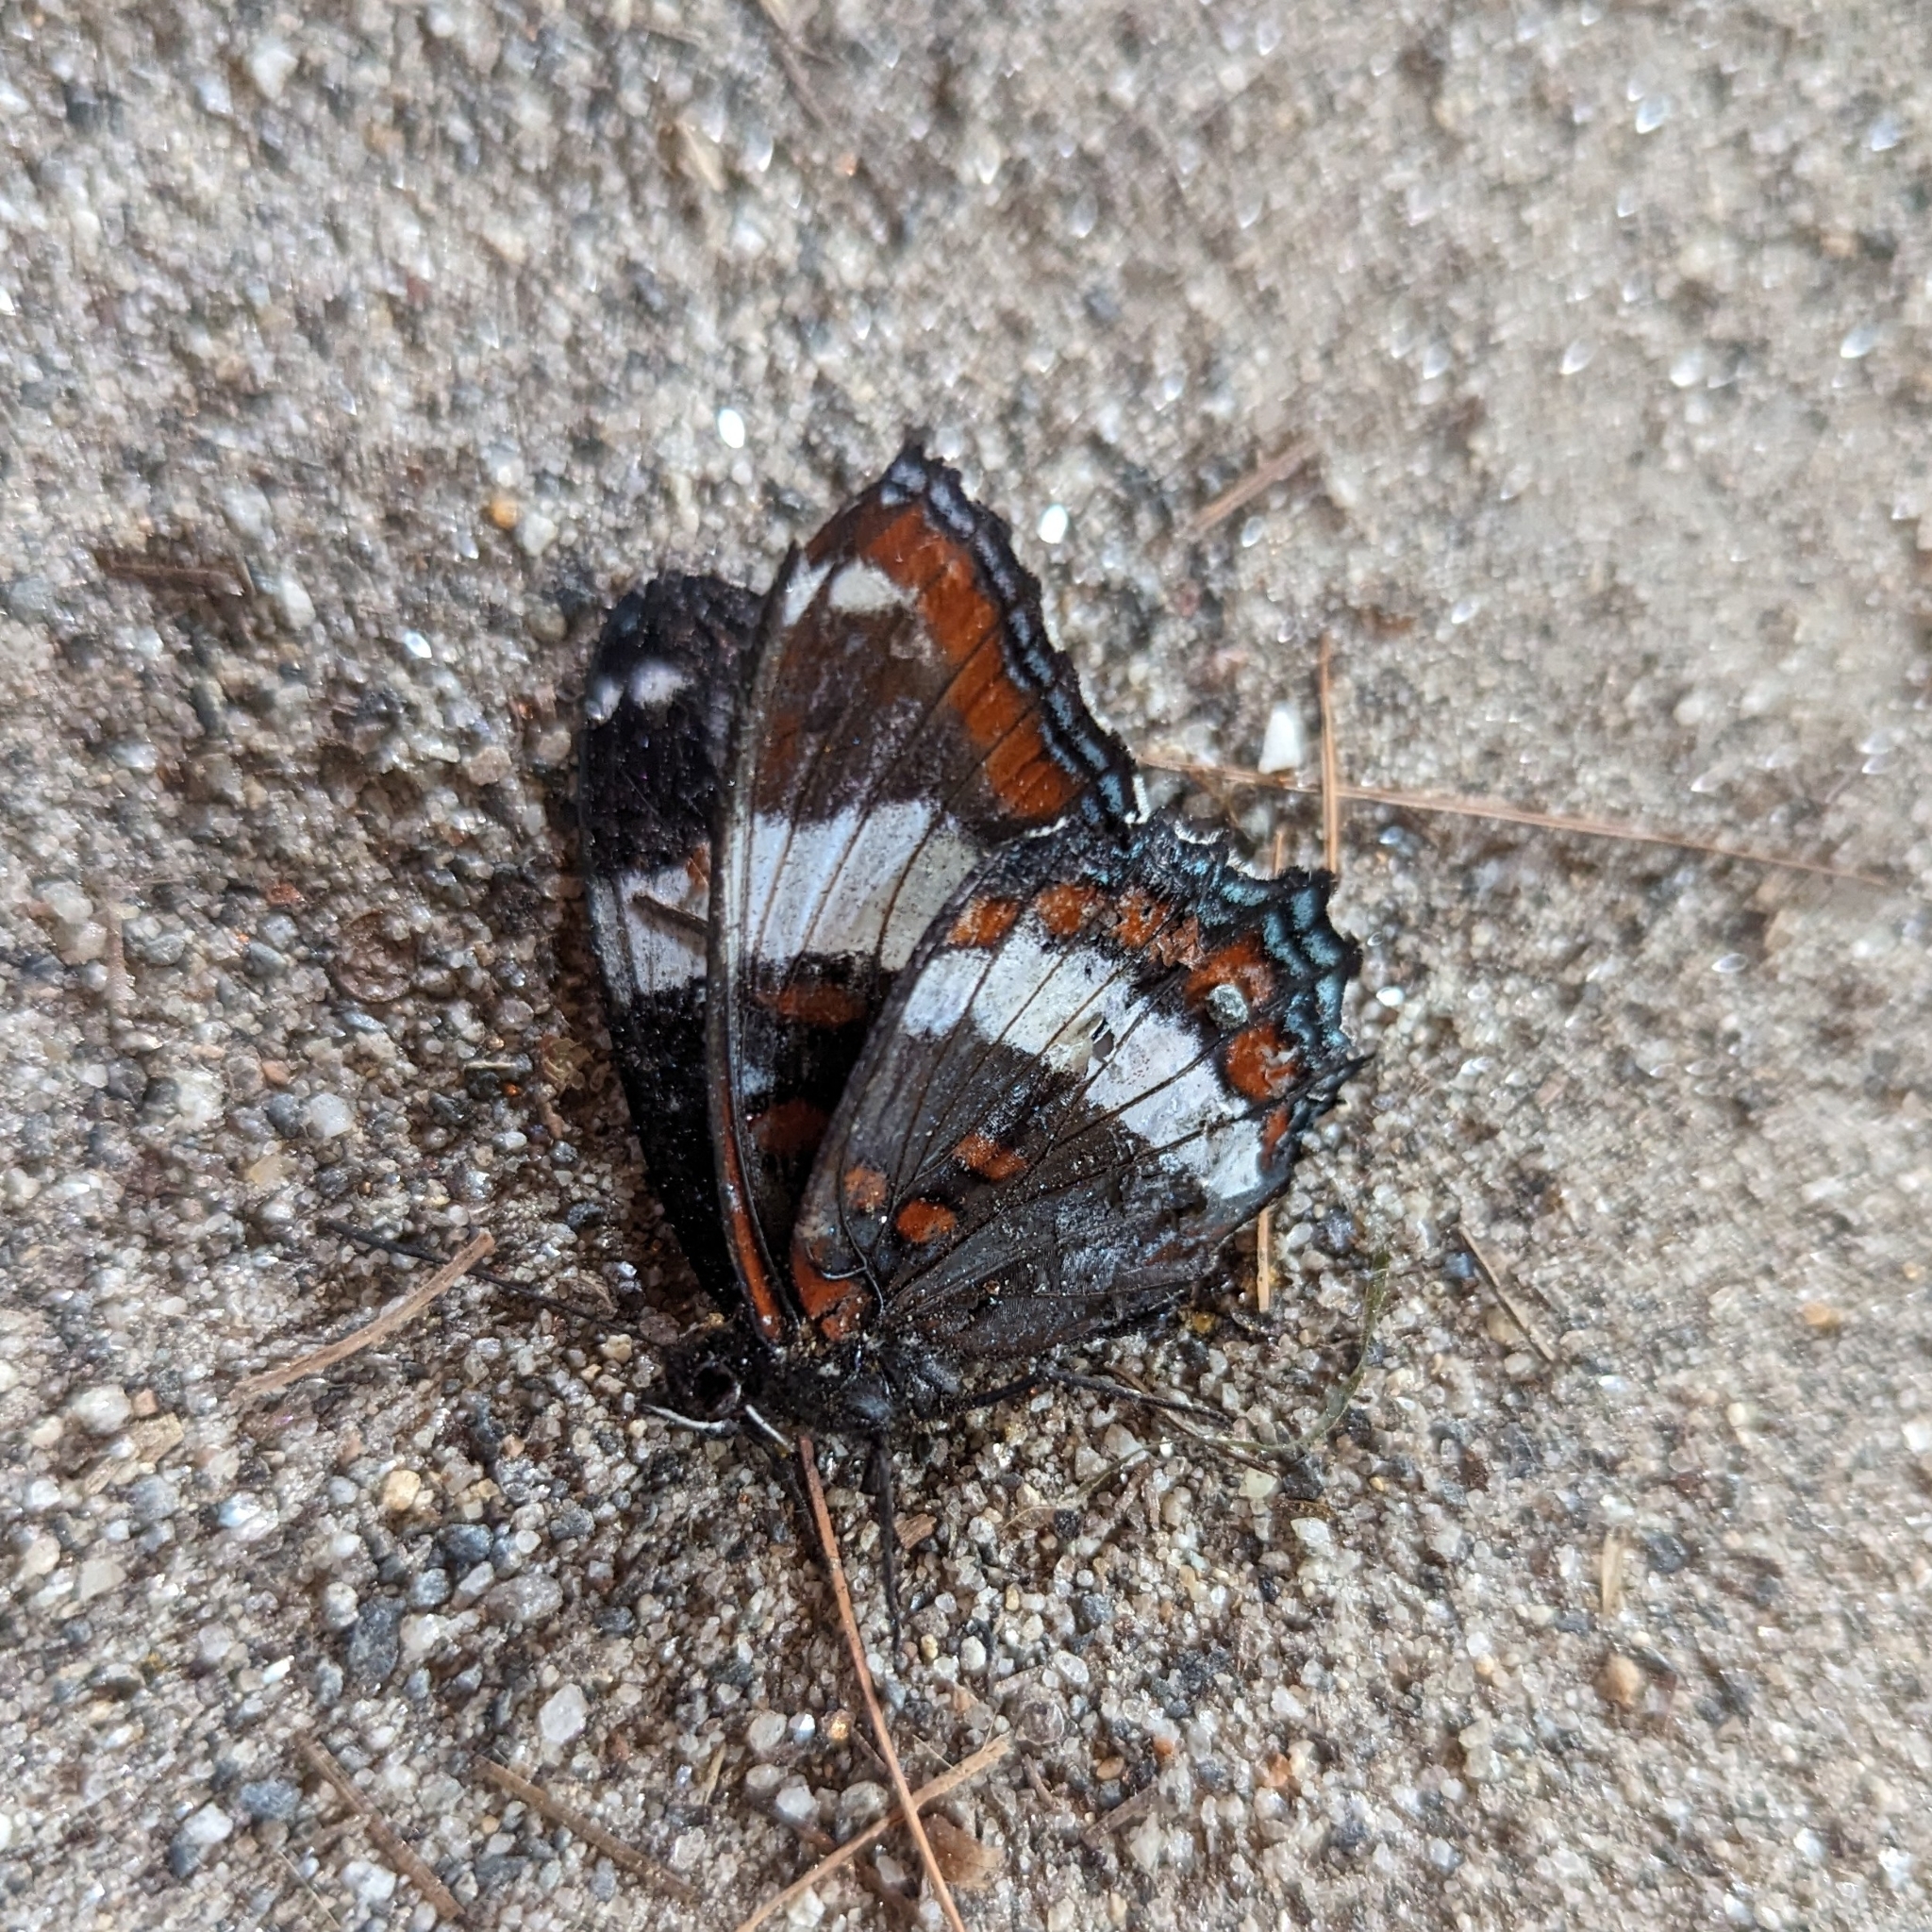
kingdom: Animalia
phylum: Arthropoda
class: Insecta
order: Lepidoptera
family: Nymphalidae
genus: Limenitis
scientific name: Limenitis arthemis
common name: Red-spotted admiral
